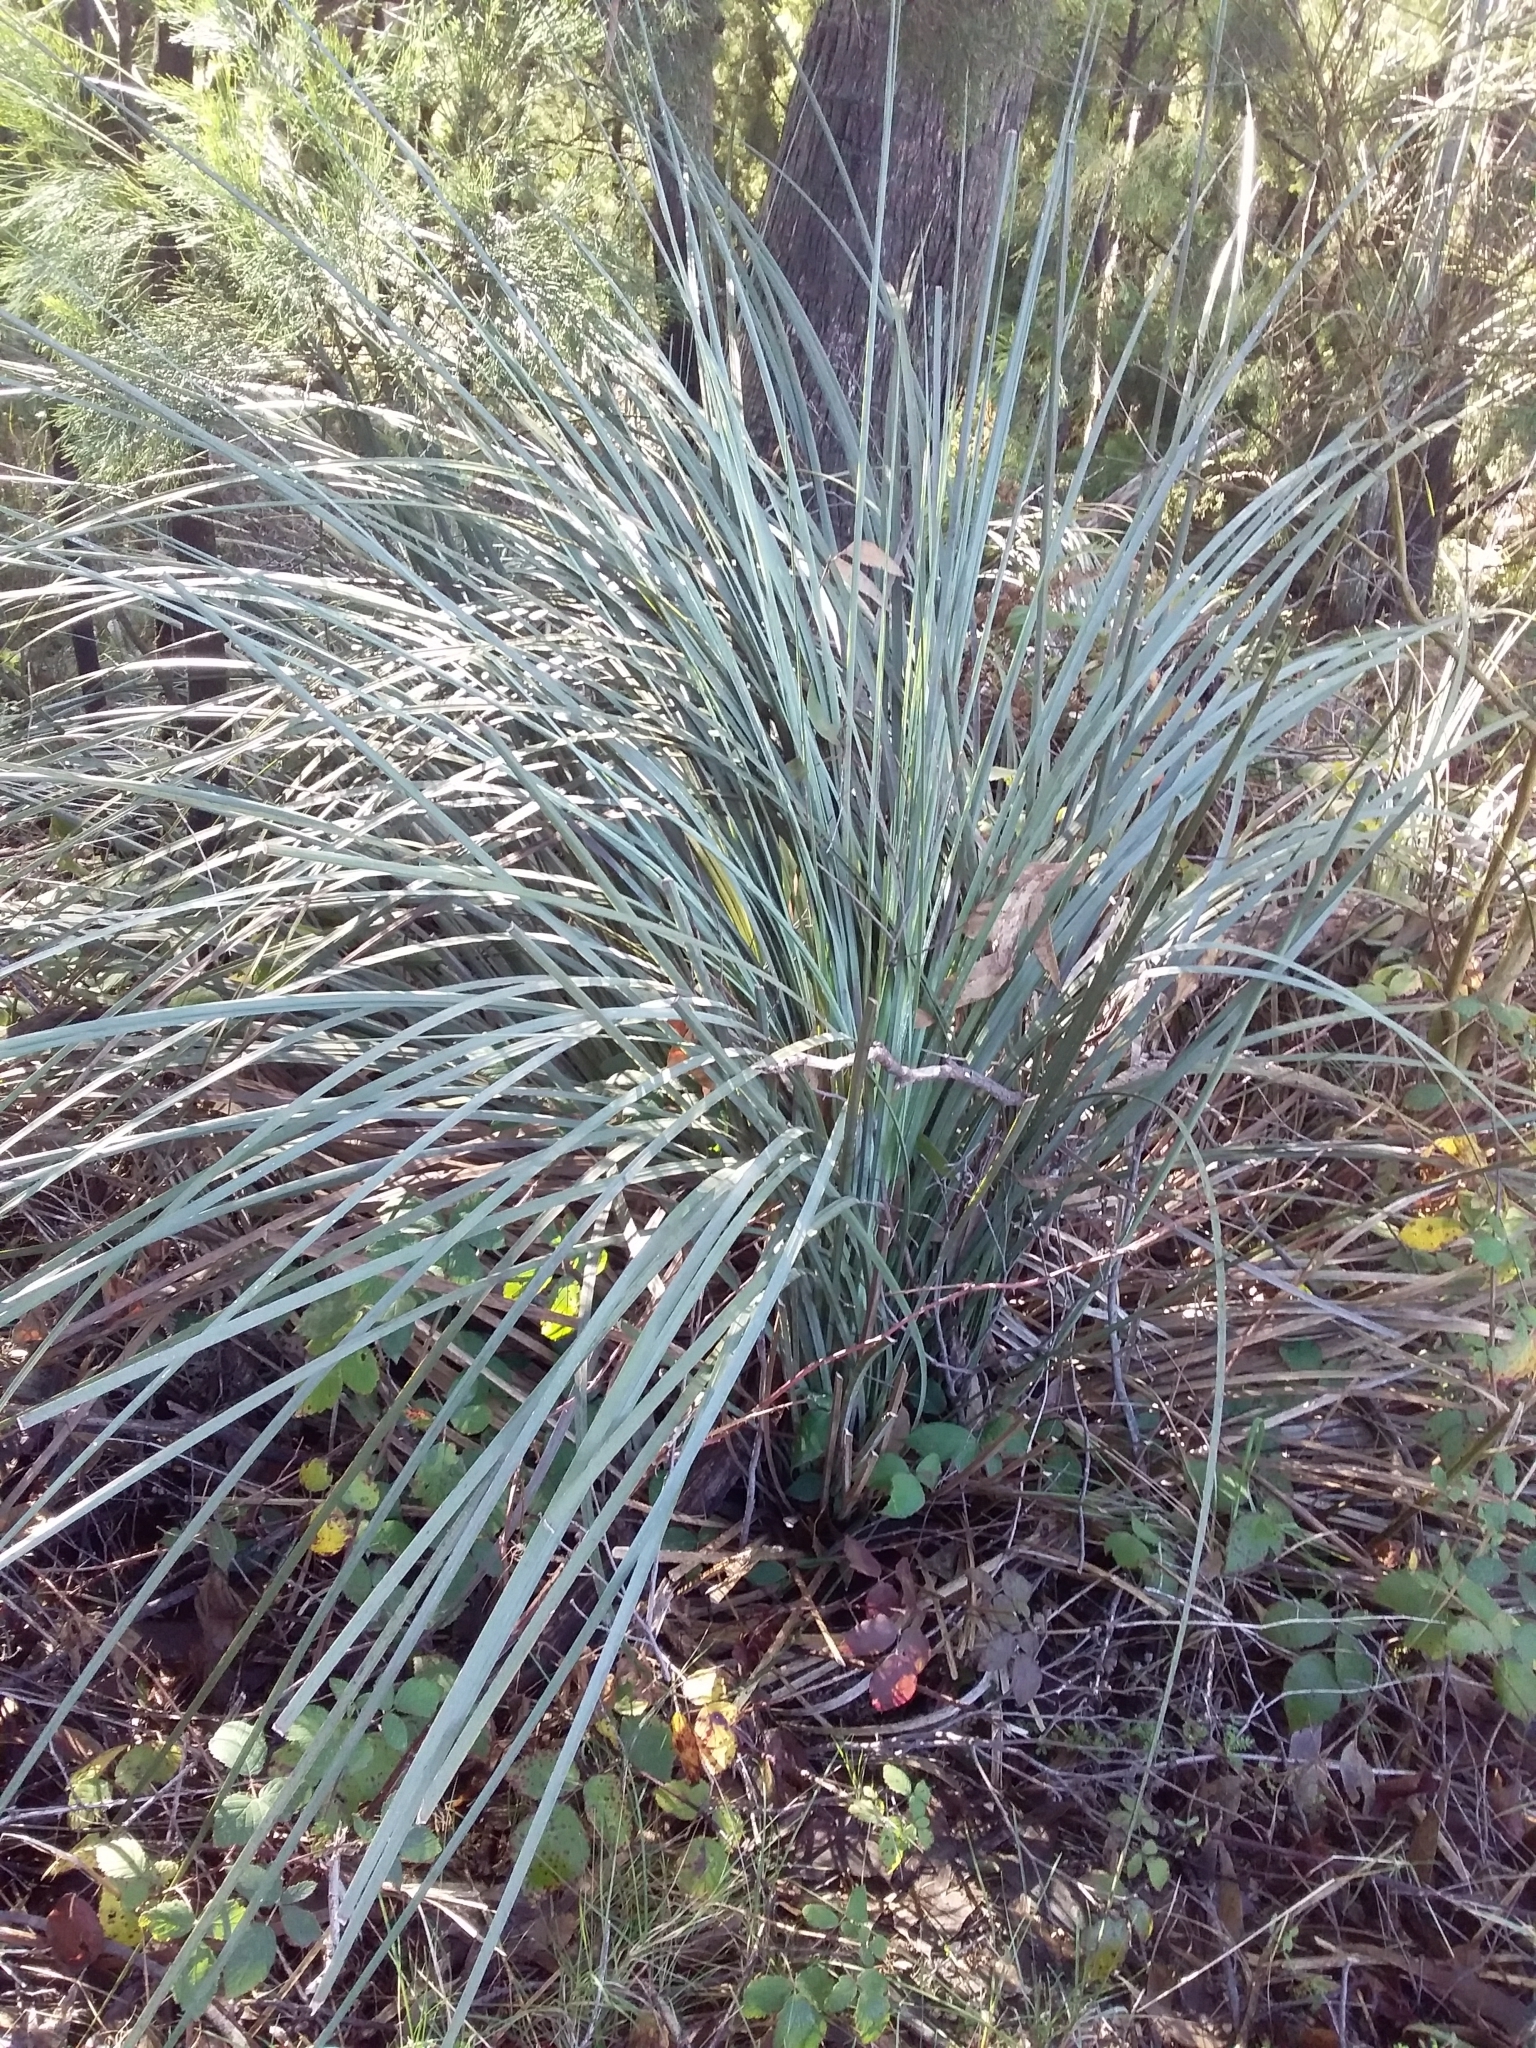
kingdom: Plantae
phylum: Tracheophyta
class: Liliopsida
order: Asparagales
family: Asphodelaceae
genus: Xanthorrhoea
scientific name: Xanthorrhoea semiplana
